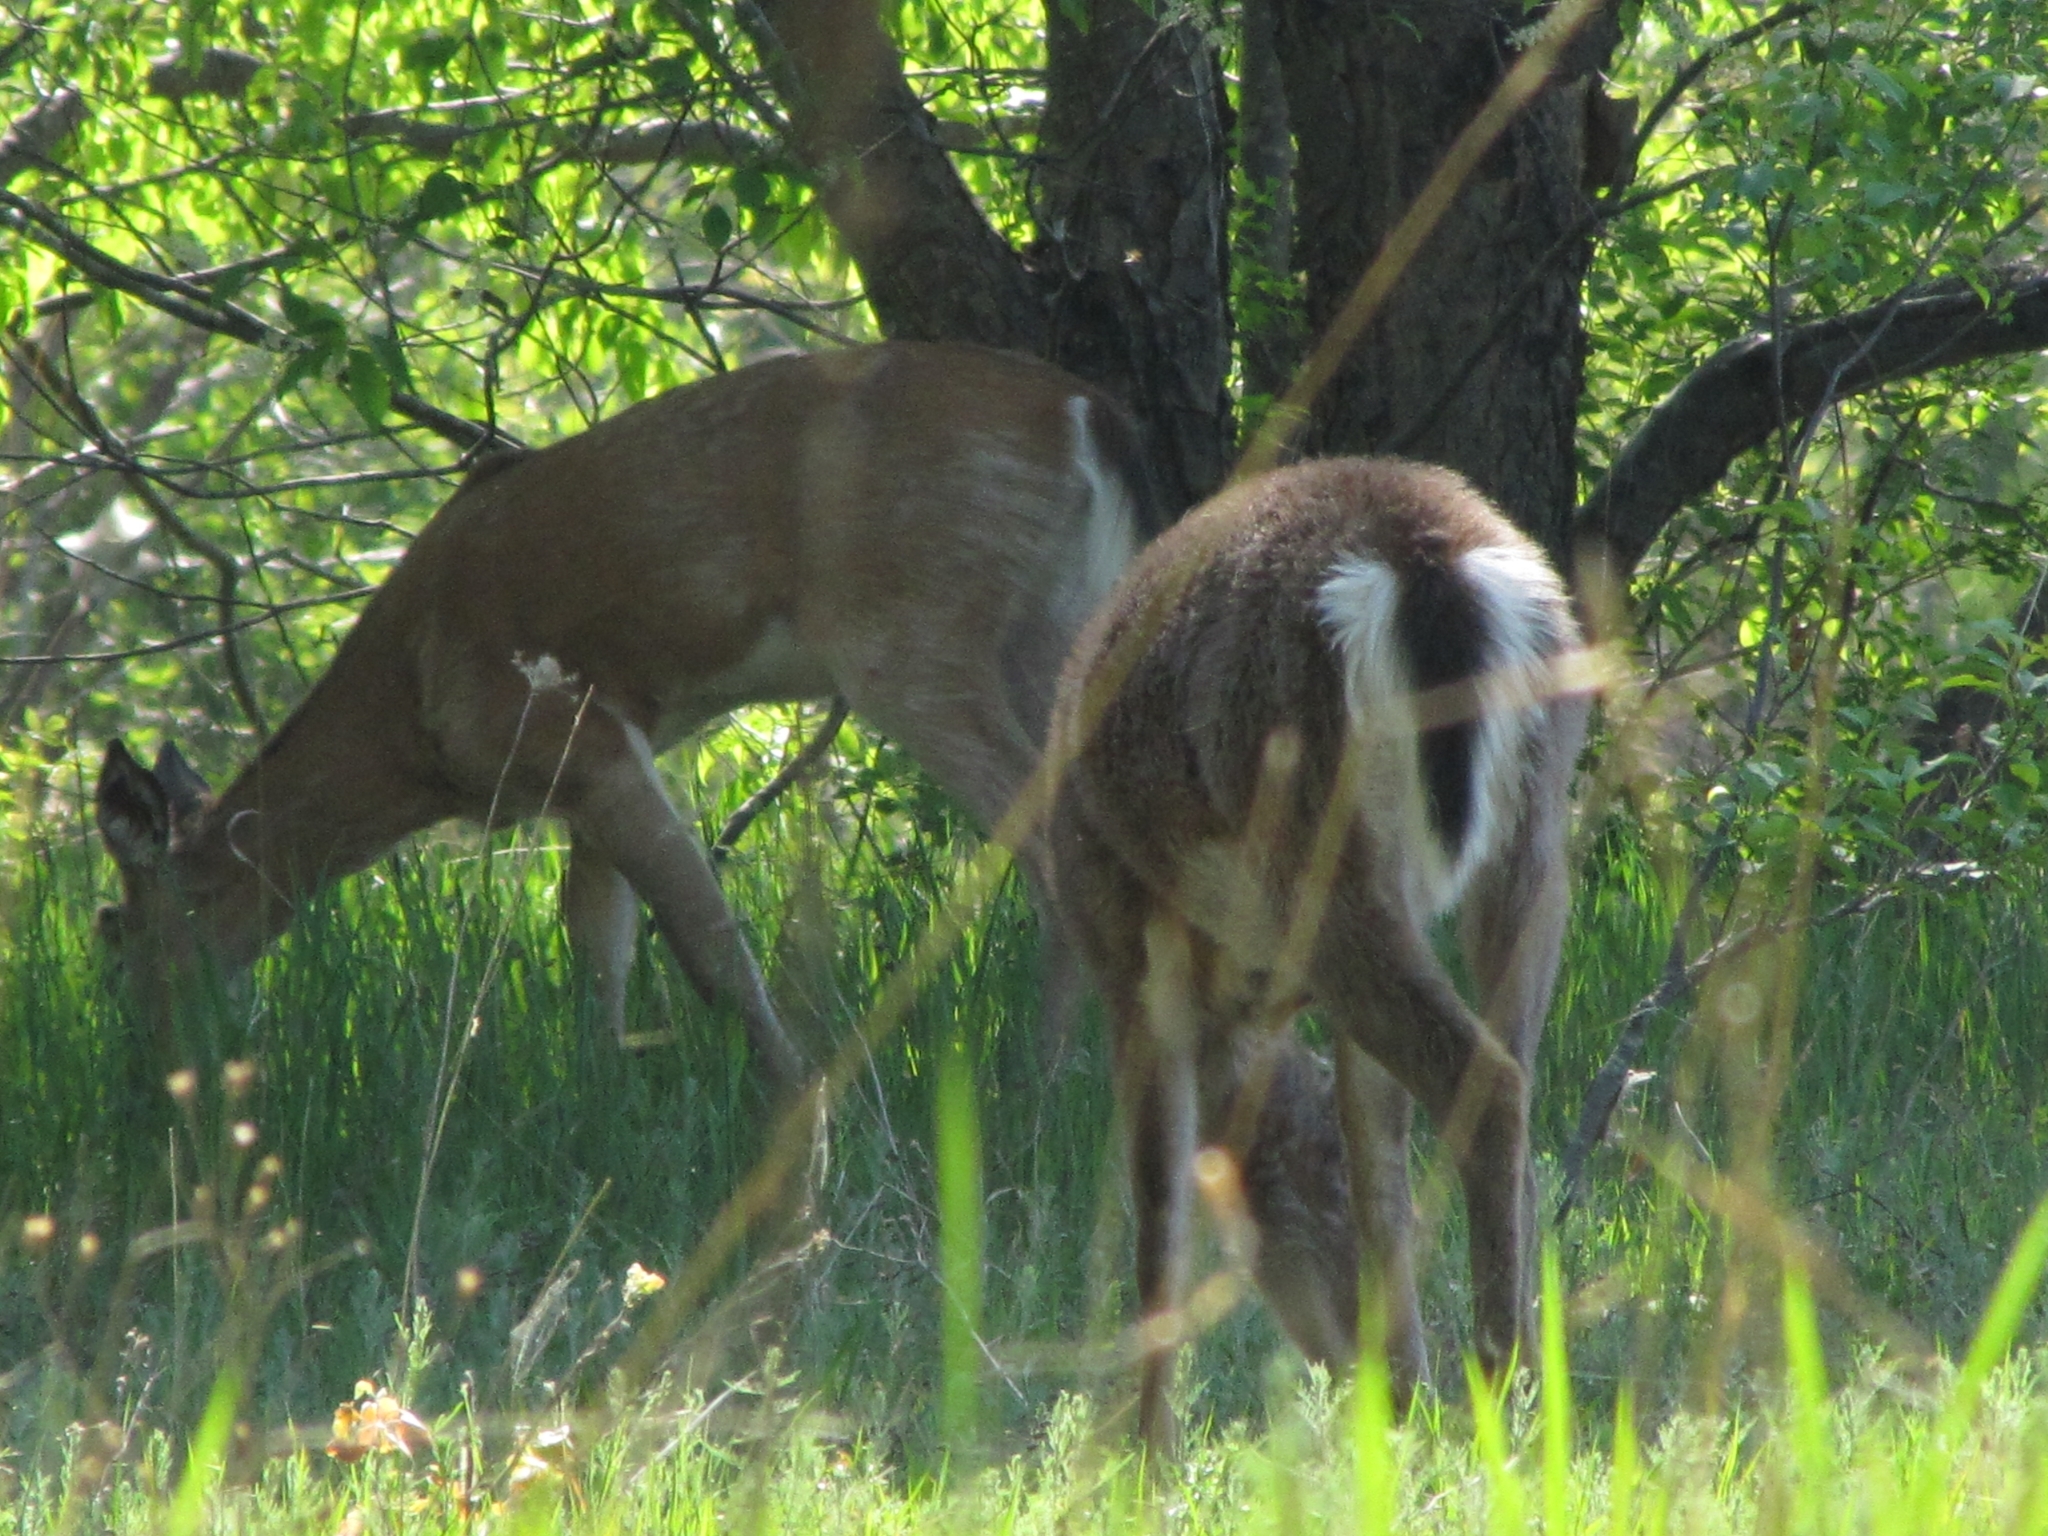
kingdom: Animalia
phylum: Chordata
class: Mammalia
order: Artiodactyla
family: Cervidae
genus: Odocoileus
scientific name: Odocoileus virginianus
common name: White-tailed deer
